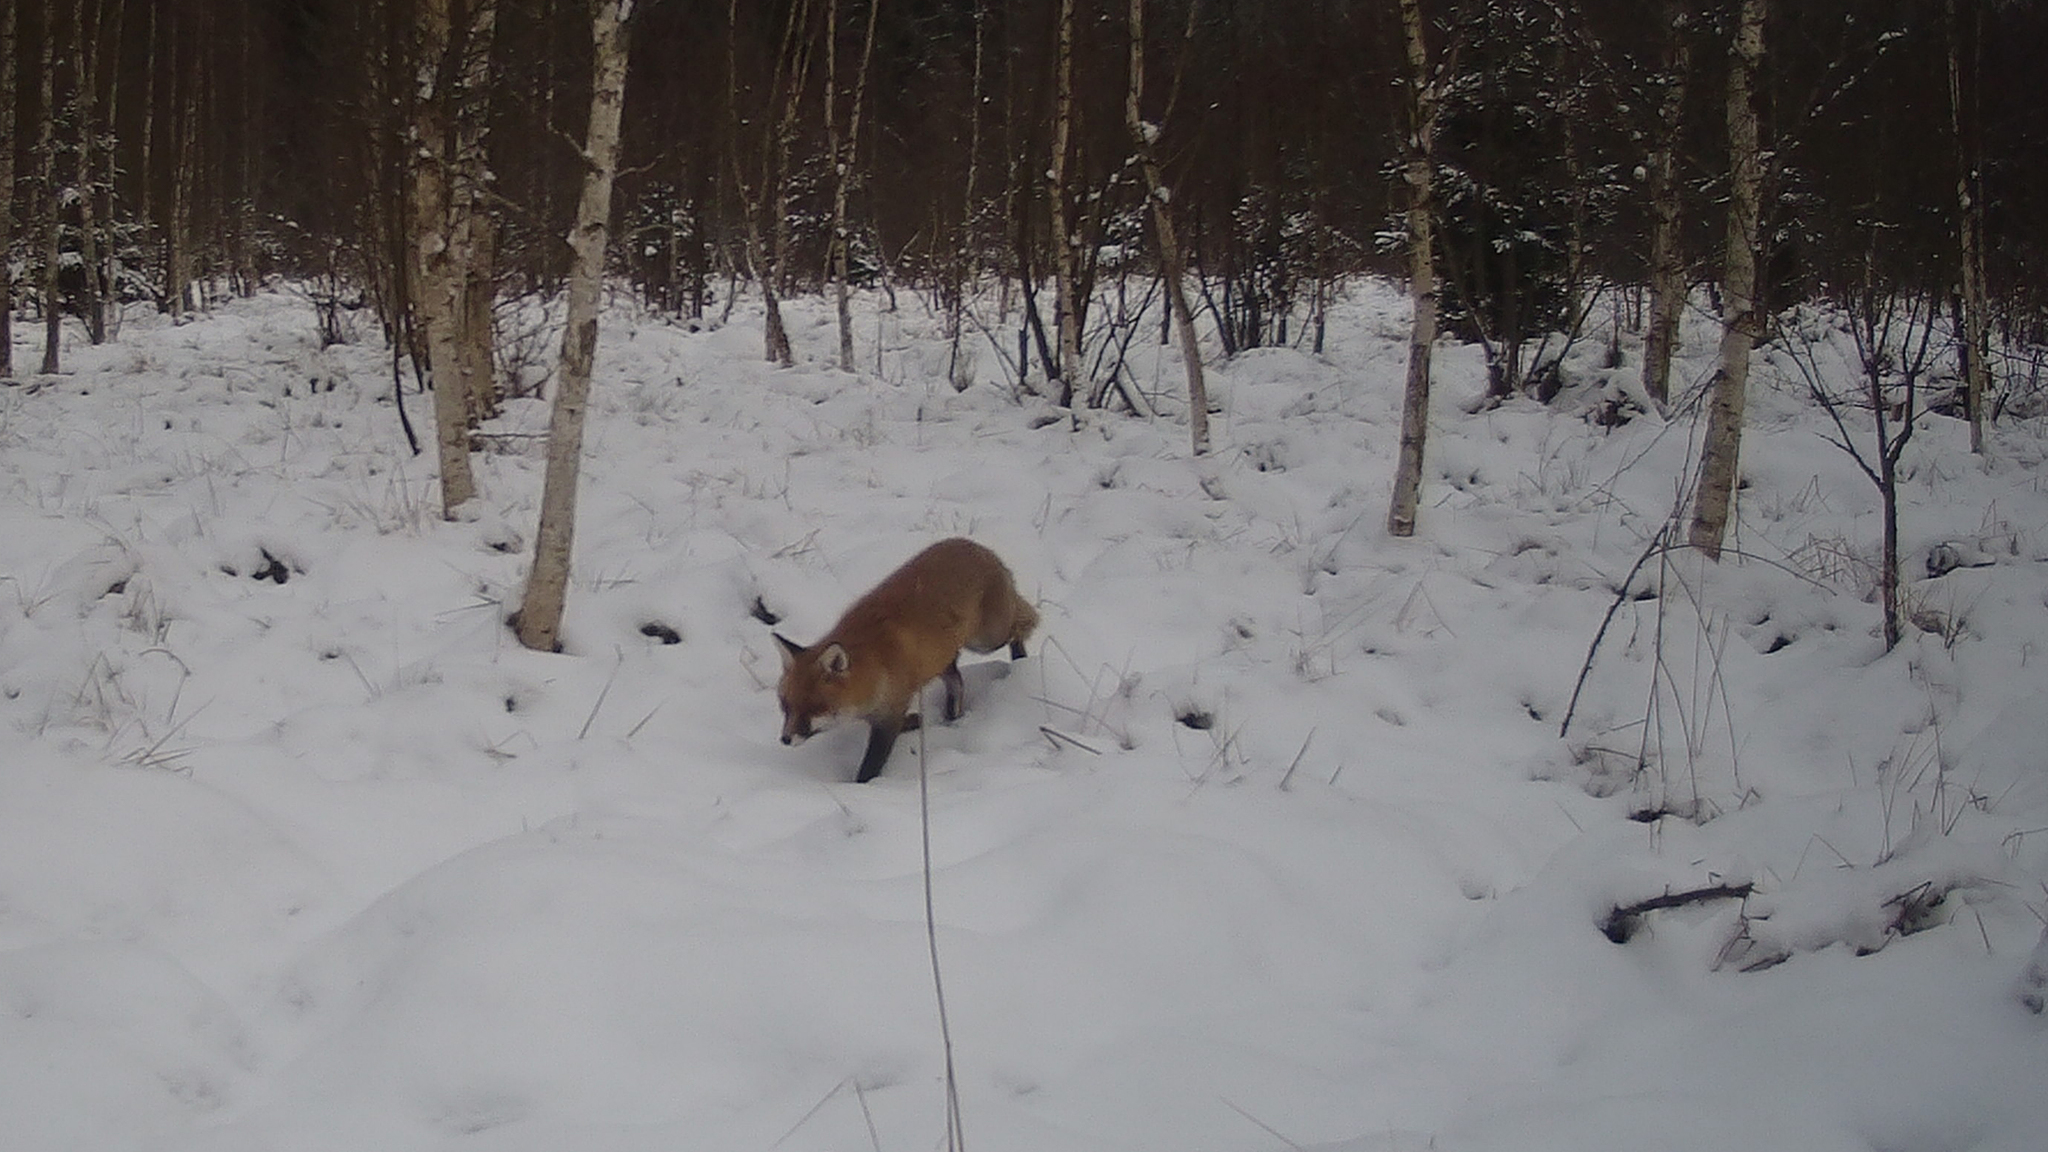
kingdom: Animalia
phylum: Chordata
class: Mammalia
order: Carnivora
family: Canidae
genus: Vulpes
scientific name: Vulpes vulpes
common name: Red fox
